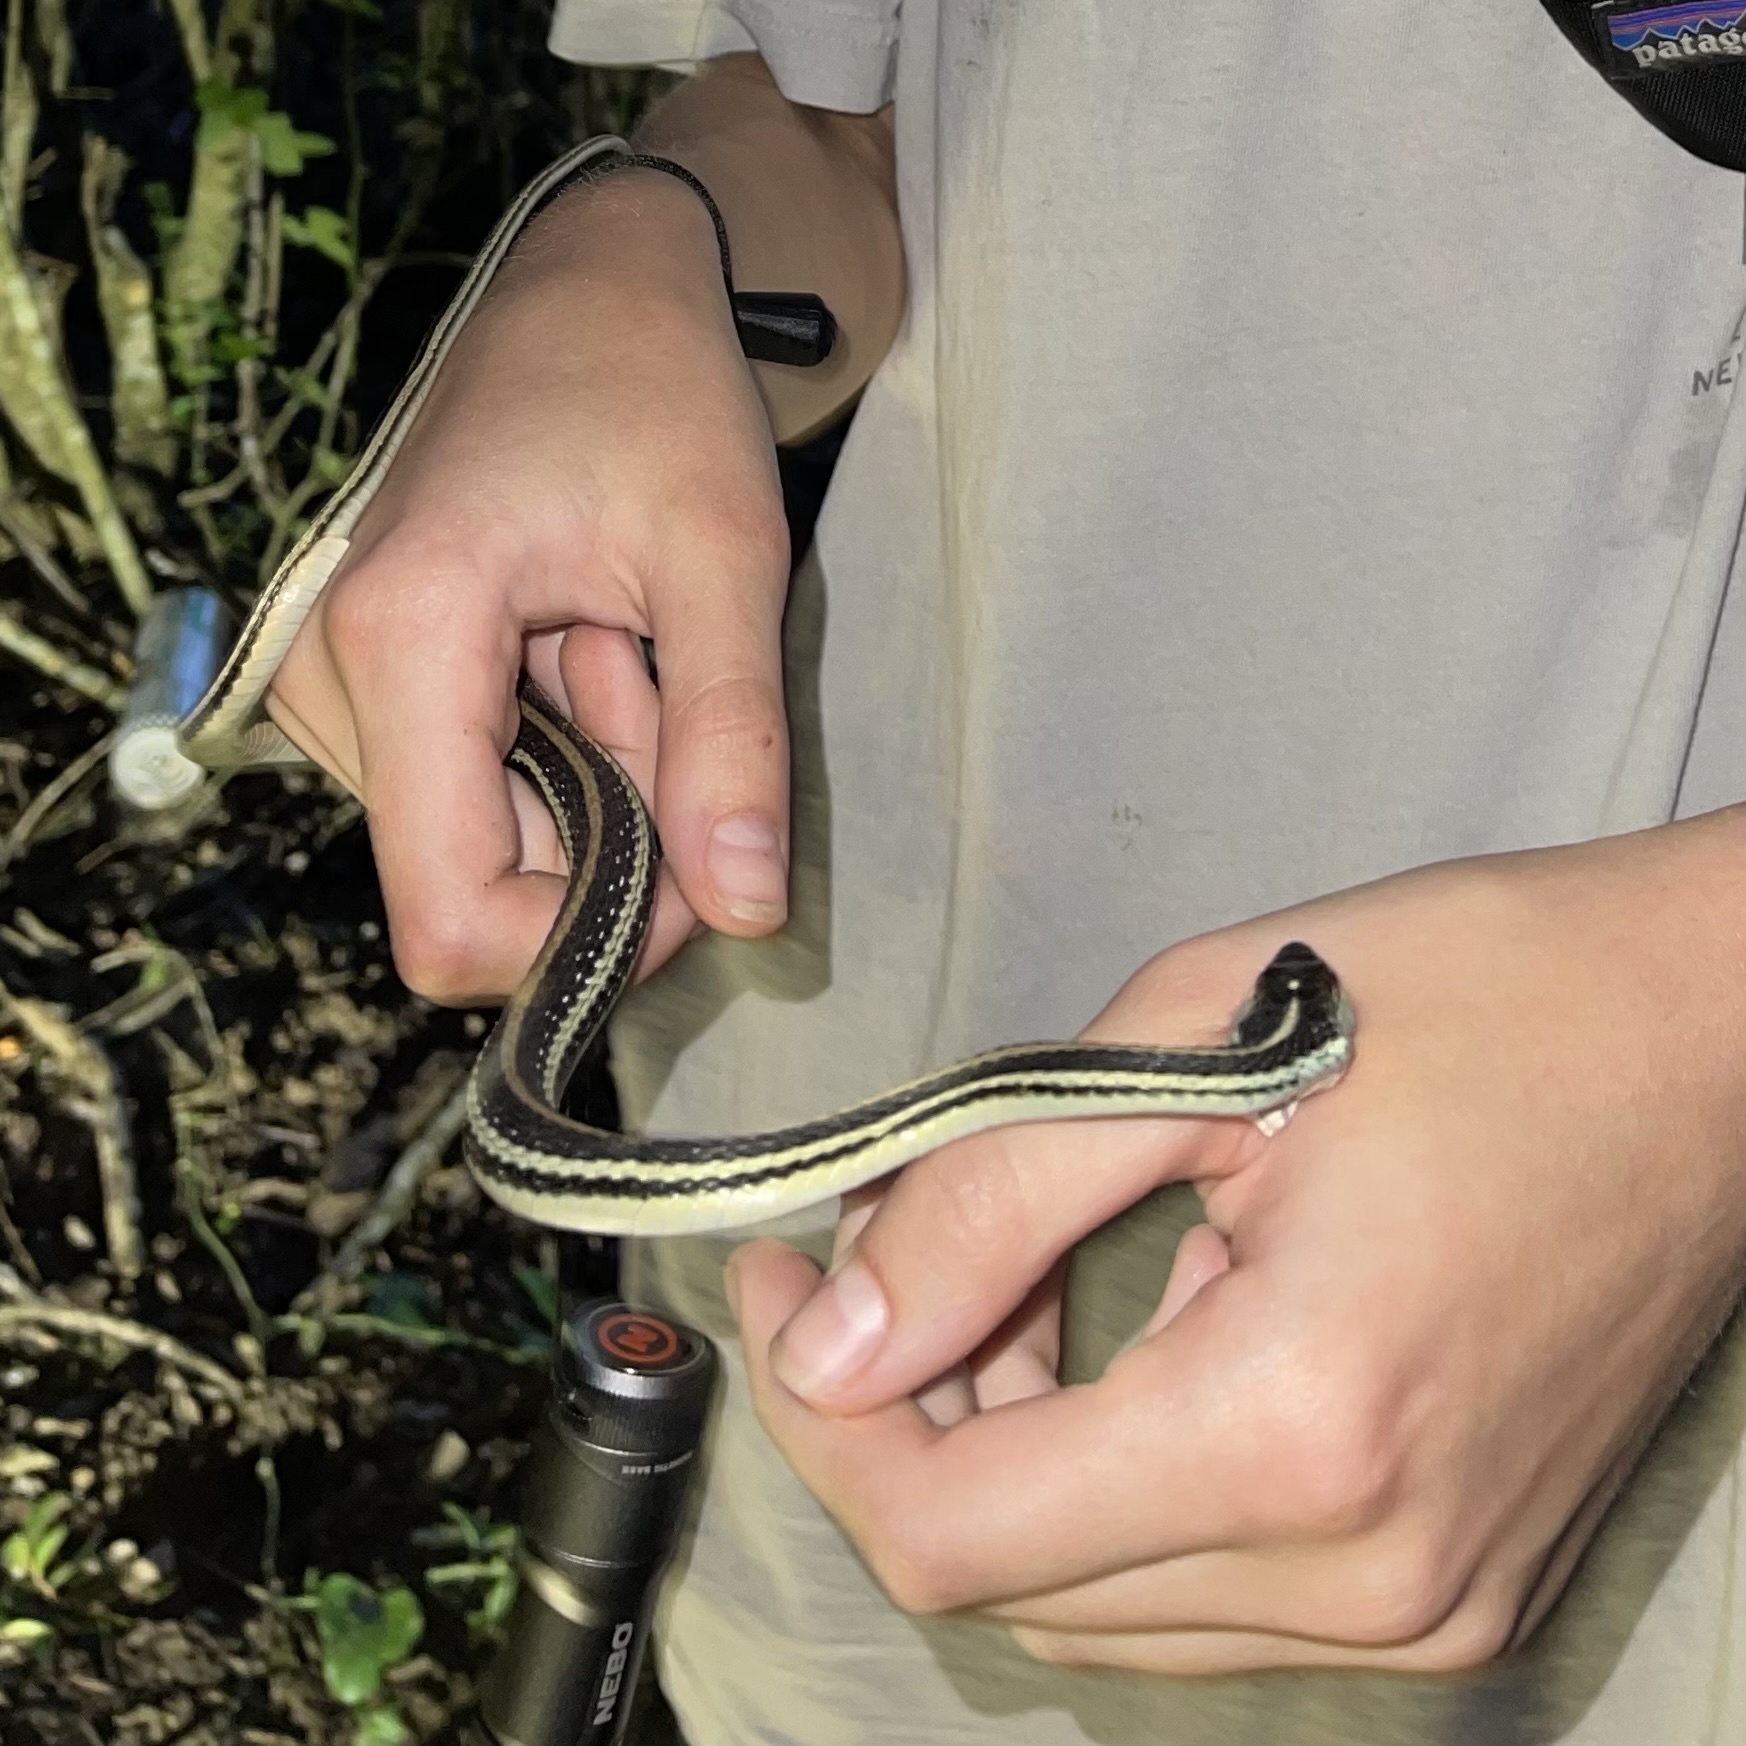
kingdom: Animalia
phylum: Chordata
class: Squamata
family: Colubridae
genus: Thamnophis
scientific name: Thamnophis proximus
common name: Western ribbon snake
